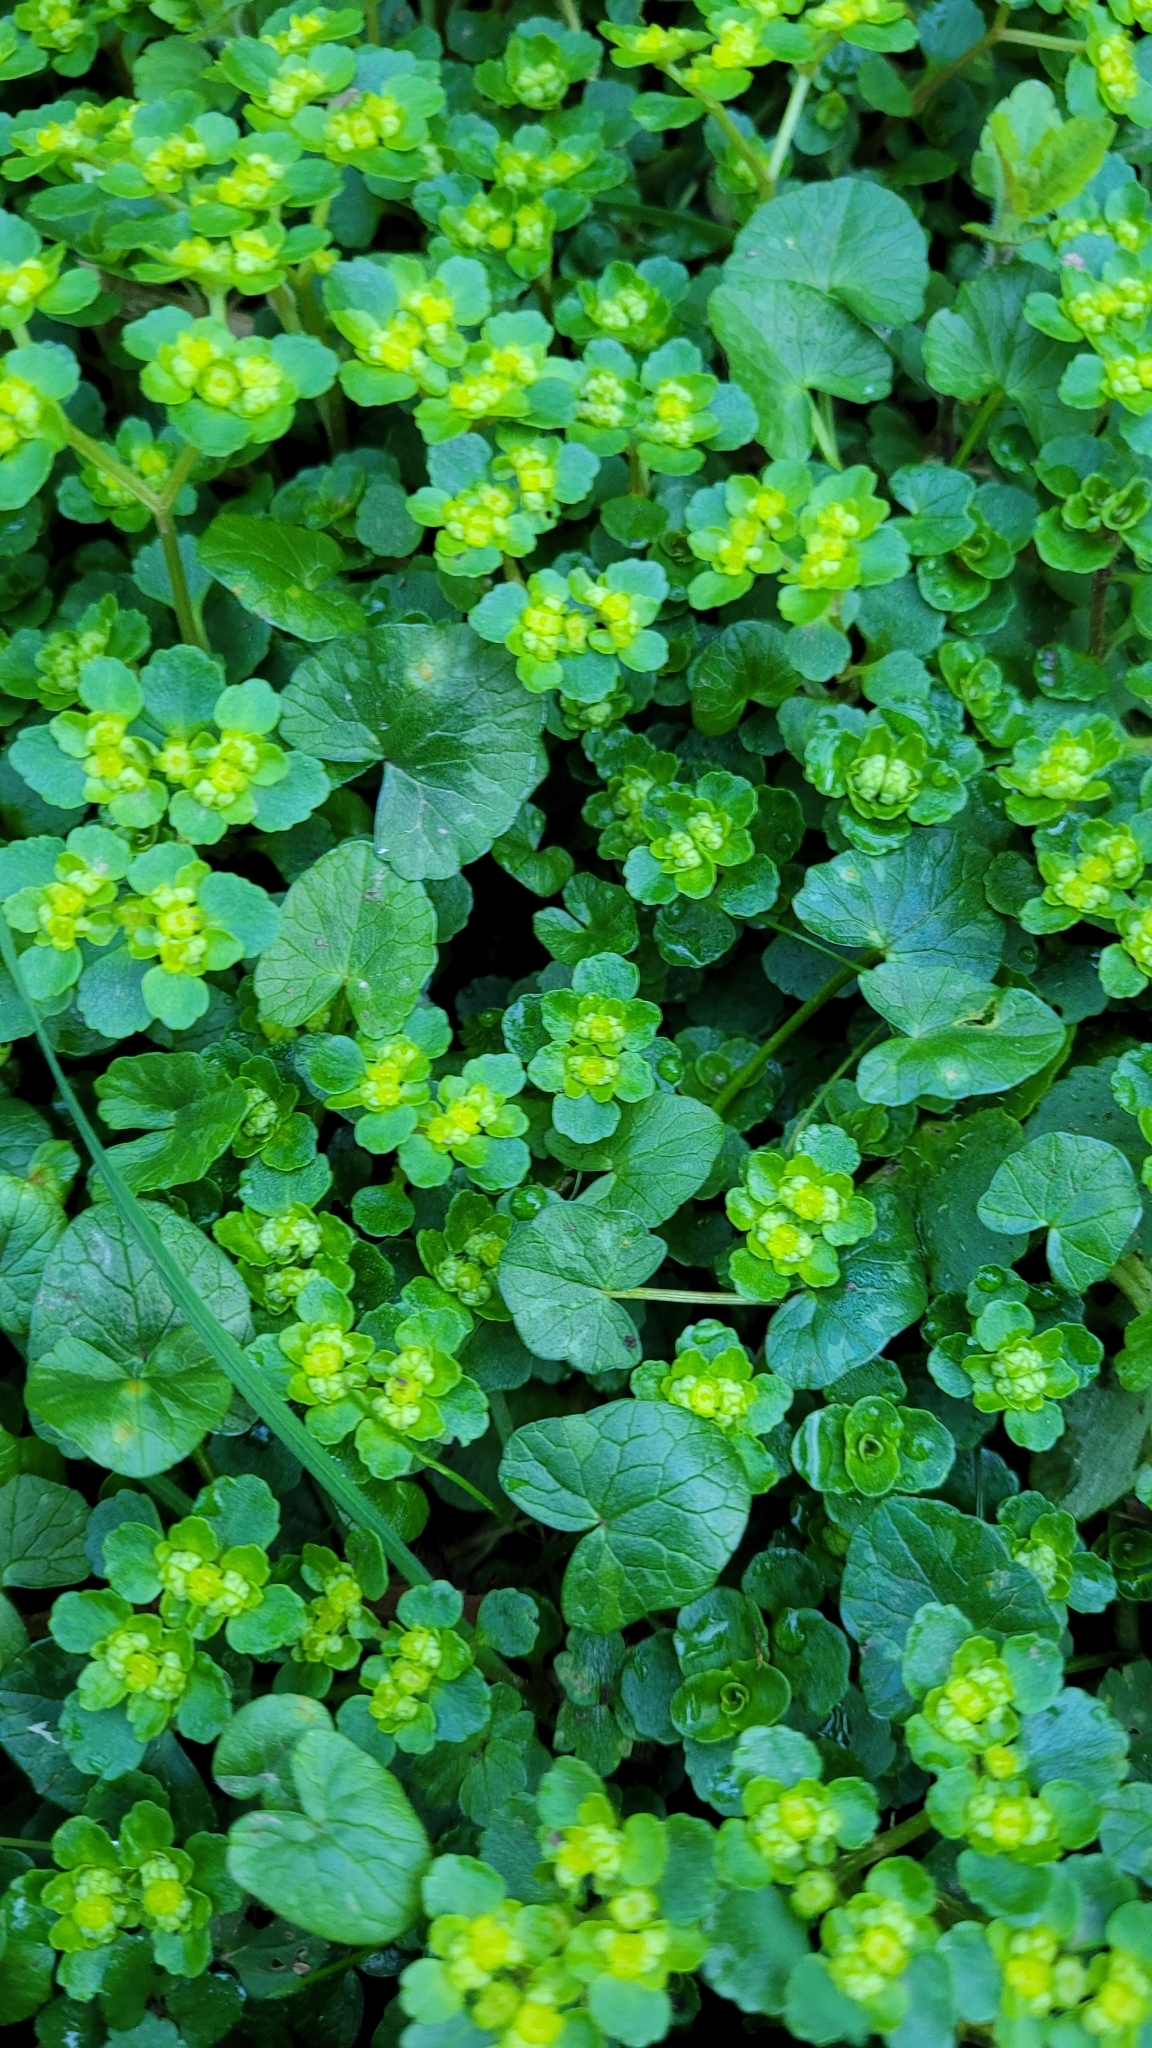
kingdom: Plantae
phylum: Tracheophyta
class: Magnoliopsida
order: Saxifragales
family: Saxifragaceae
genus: Chrysosplenium
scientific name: Chrysosplenium oppositifolium
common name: Opposite-leaved golden-saxifrage
